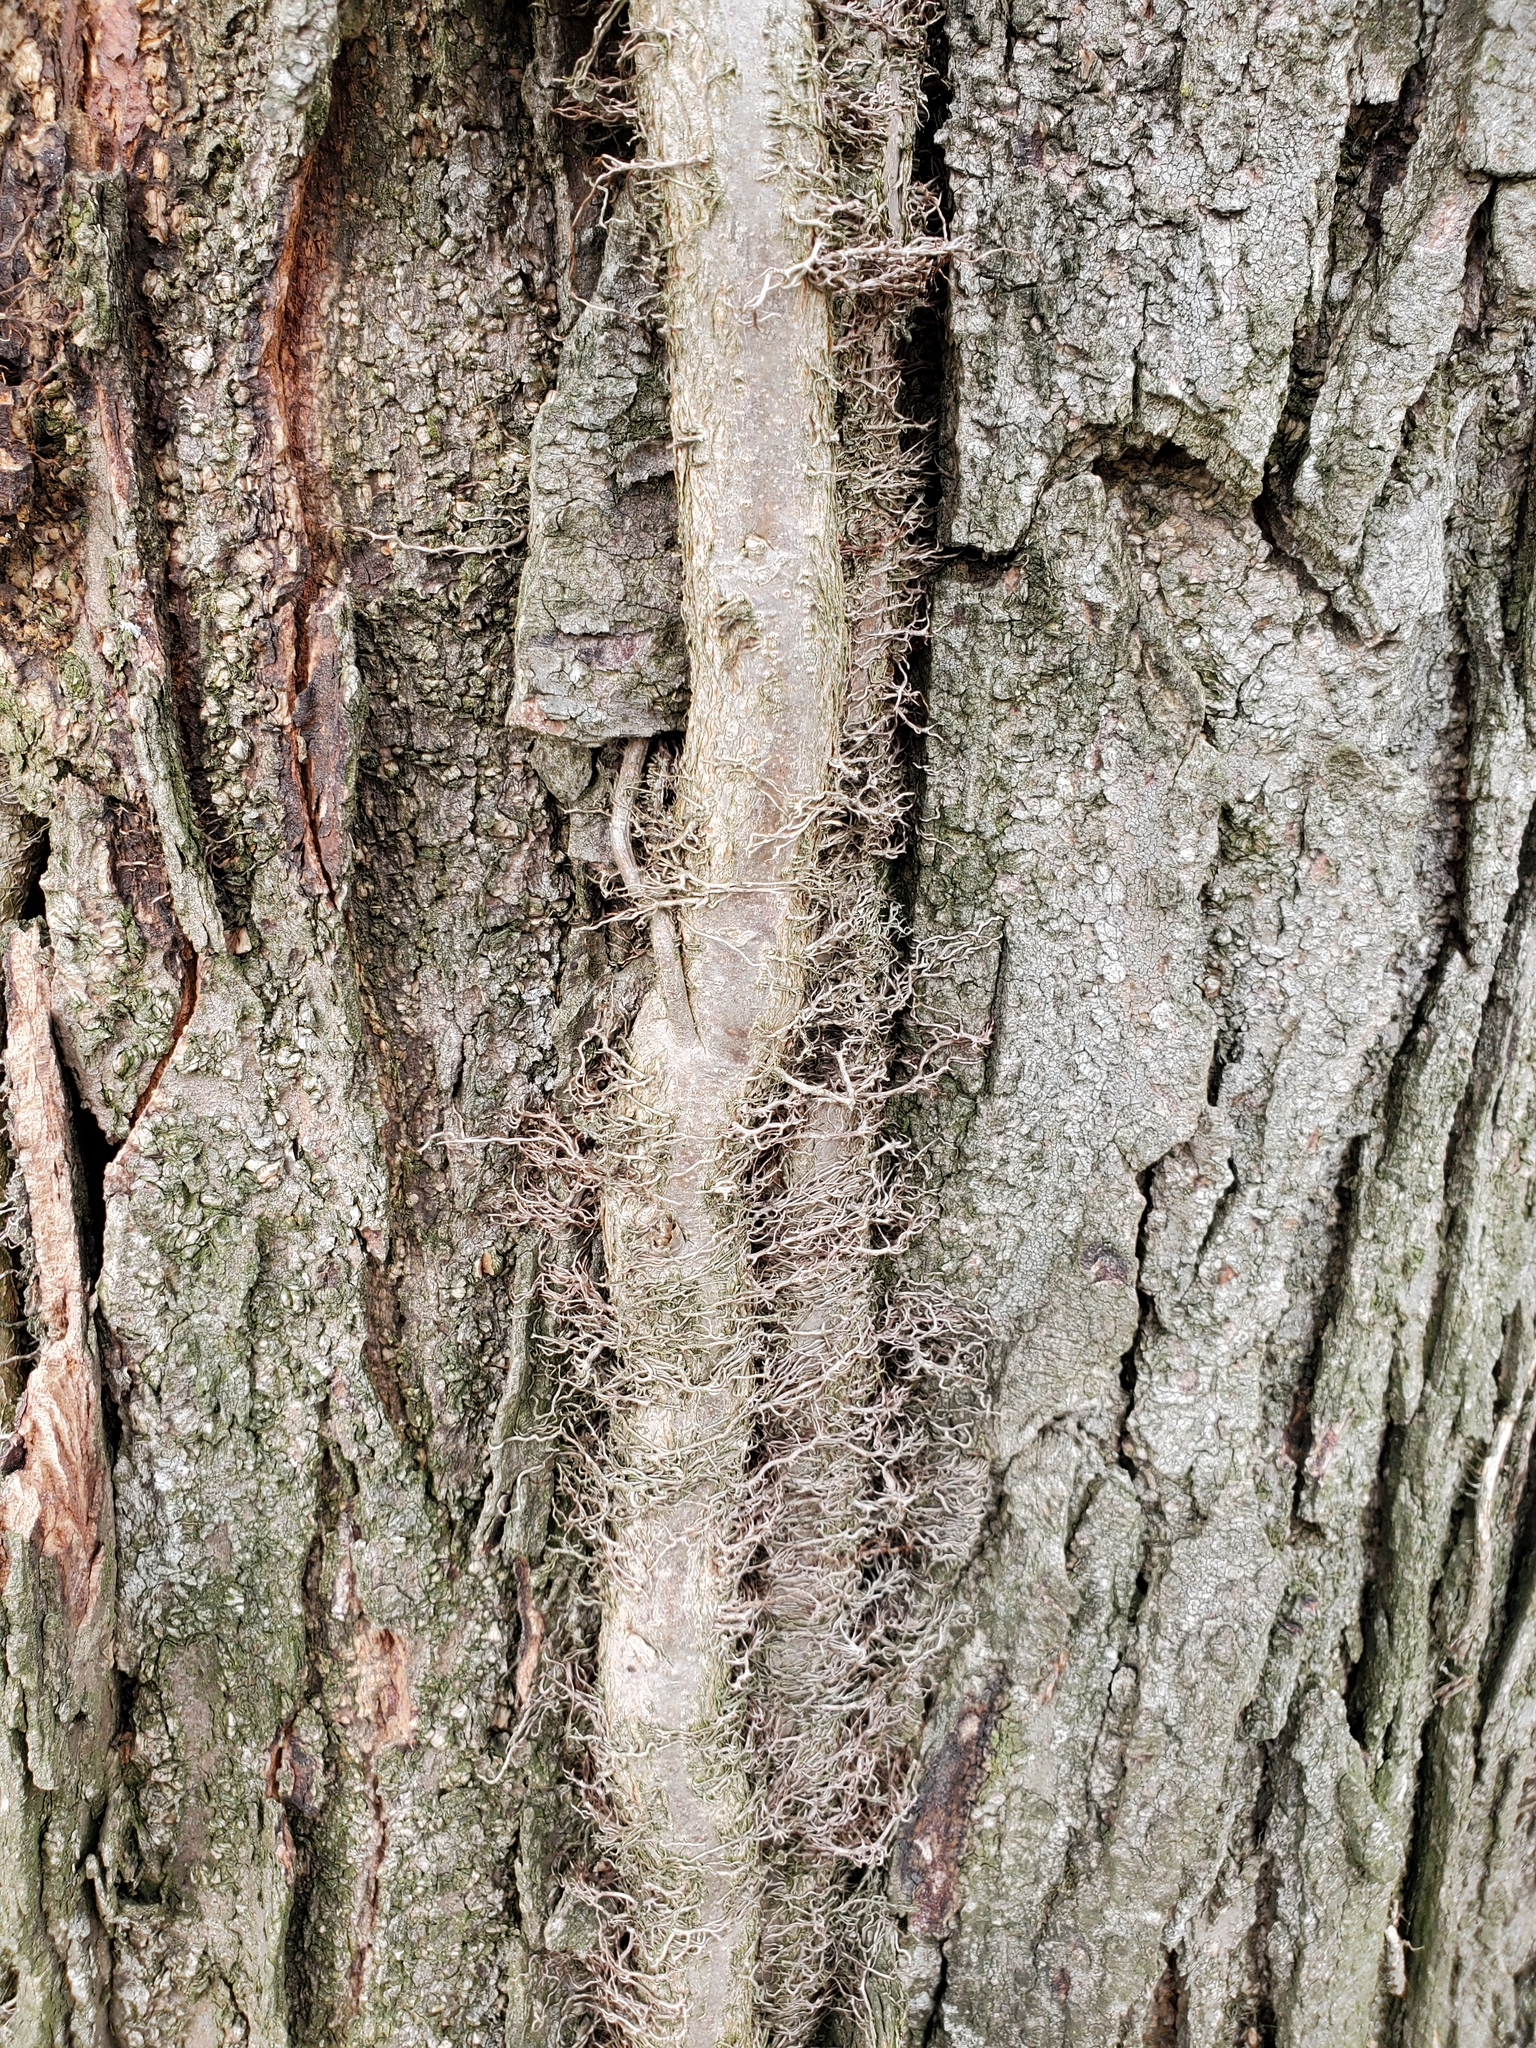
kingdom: Plantae
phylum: Tracheophyta
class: Magnoliopsida
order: Sapindales
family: Anacardiaceae
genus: Toxicodendron
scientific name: Toxicodendron radicans
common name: Poison ivy
